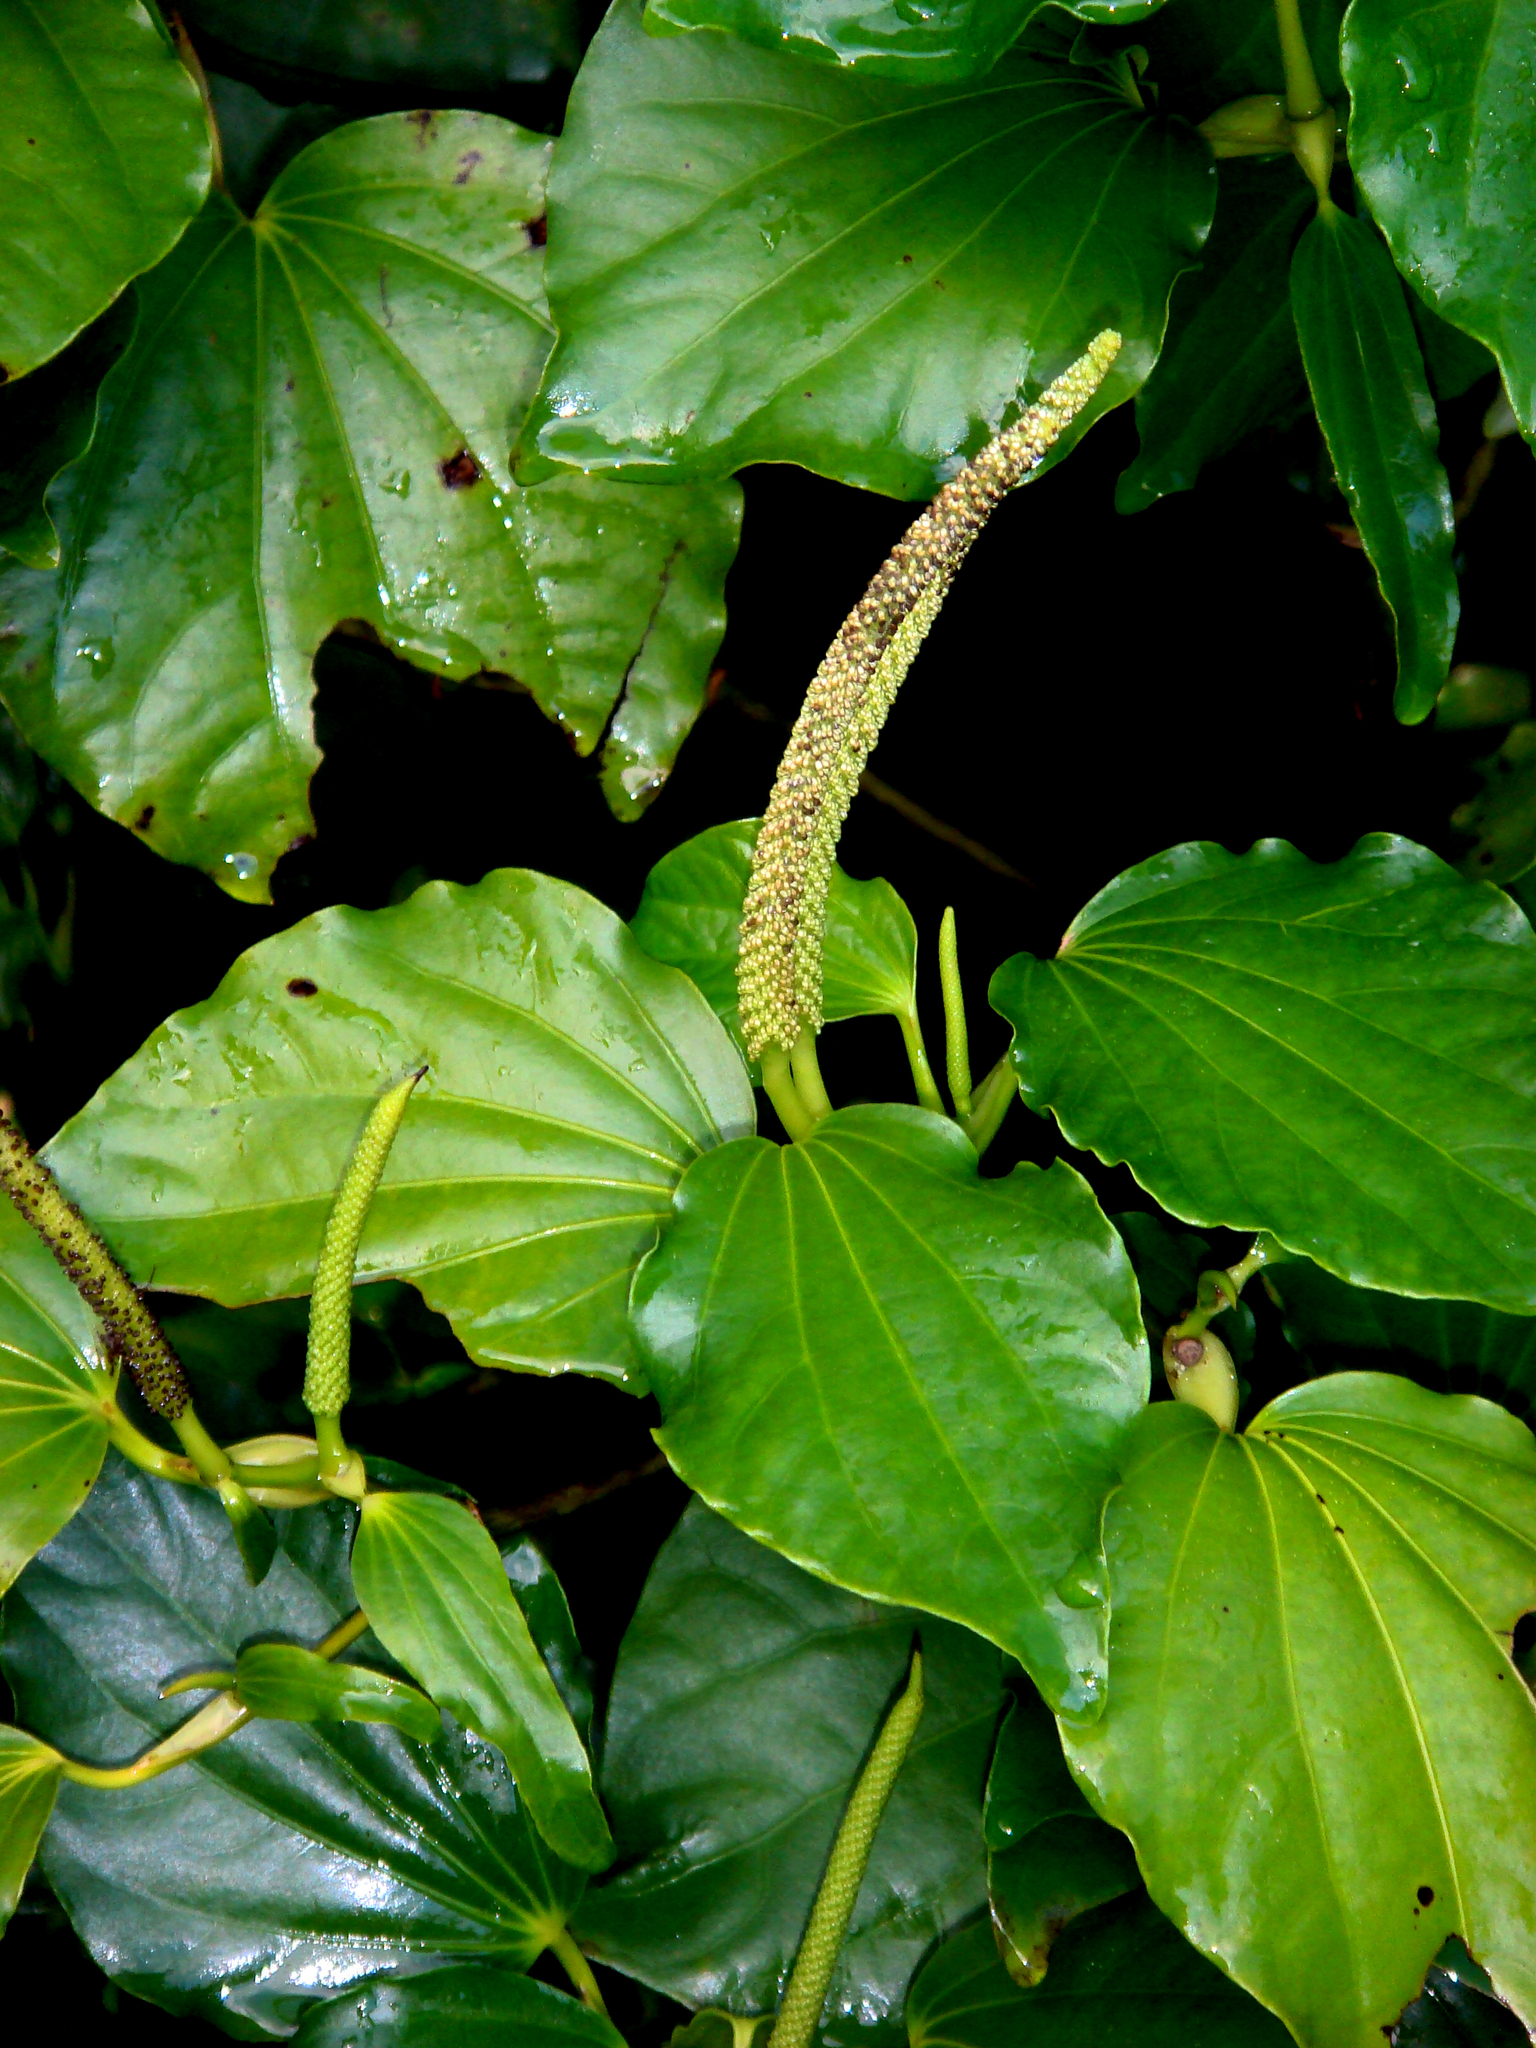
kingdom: Plantae
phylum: Tracheophyta
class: Magnoliopsida
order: Piperales
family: Piperaceae
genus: Macropiper
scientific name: Macropiper excelsum
